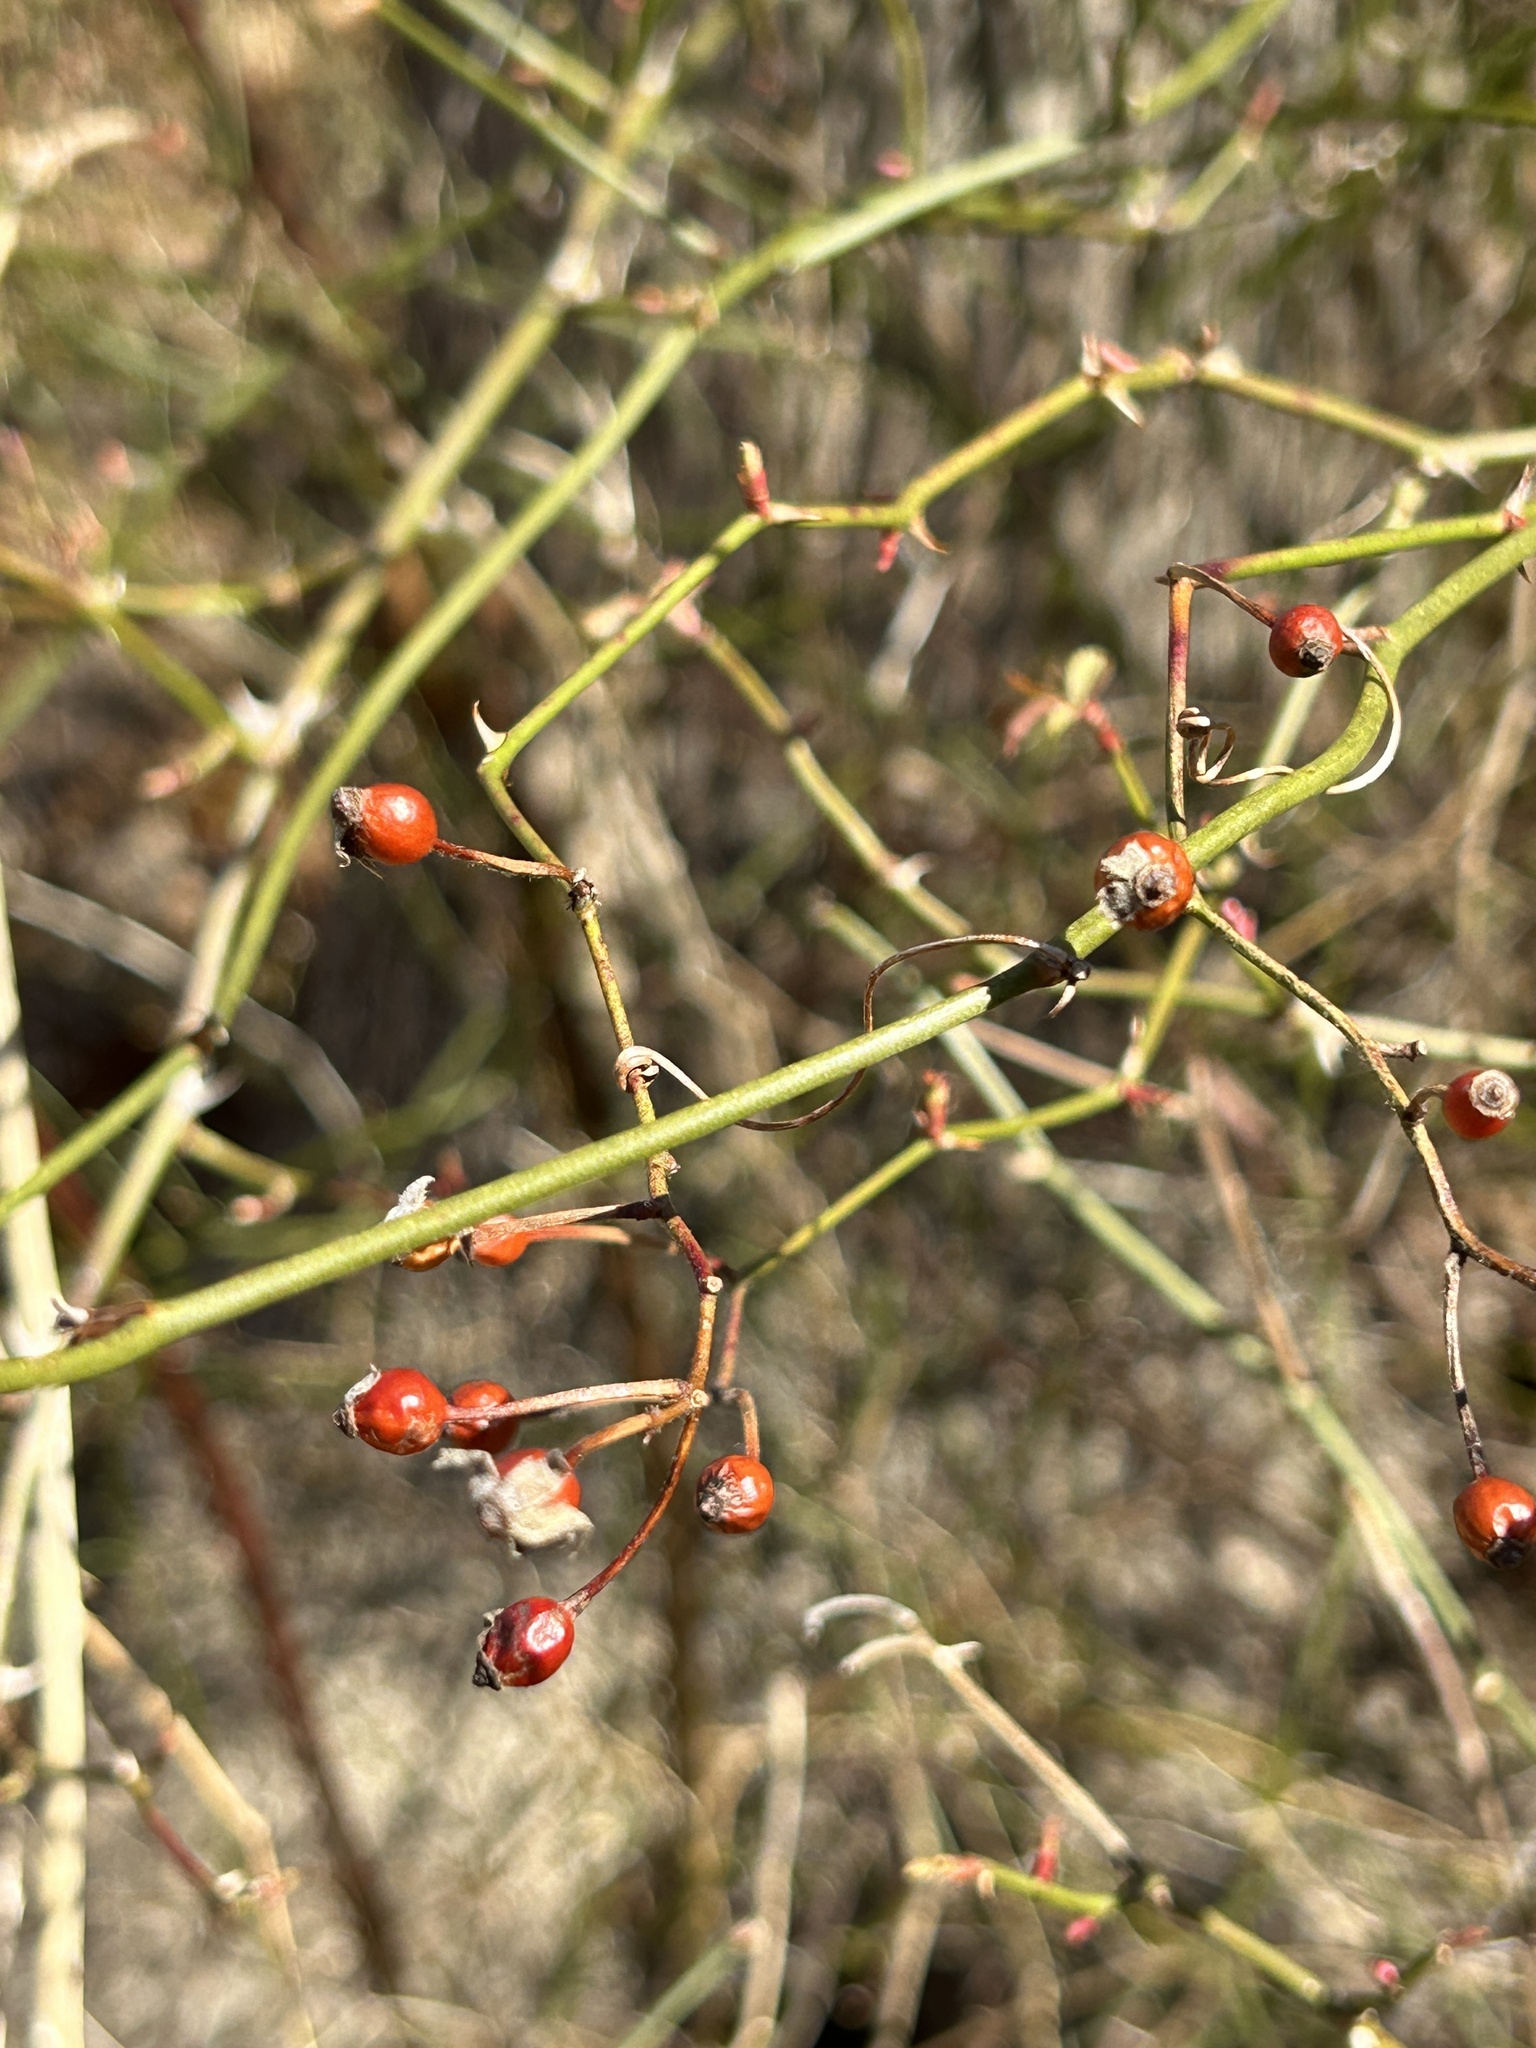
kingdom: Plantae
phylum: Tracheophyta
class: Magnoliopsida
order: Rosales
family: Rosaceae
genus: Rosa
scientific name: Rosa multiflora
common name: Multiflora rose
